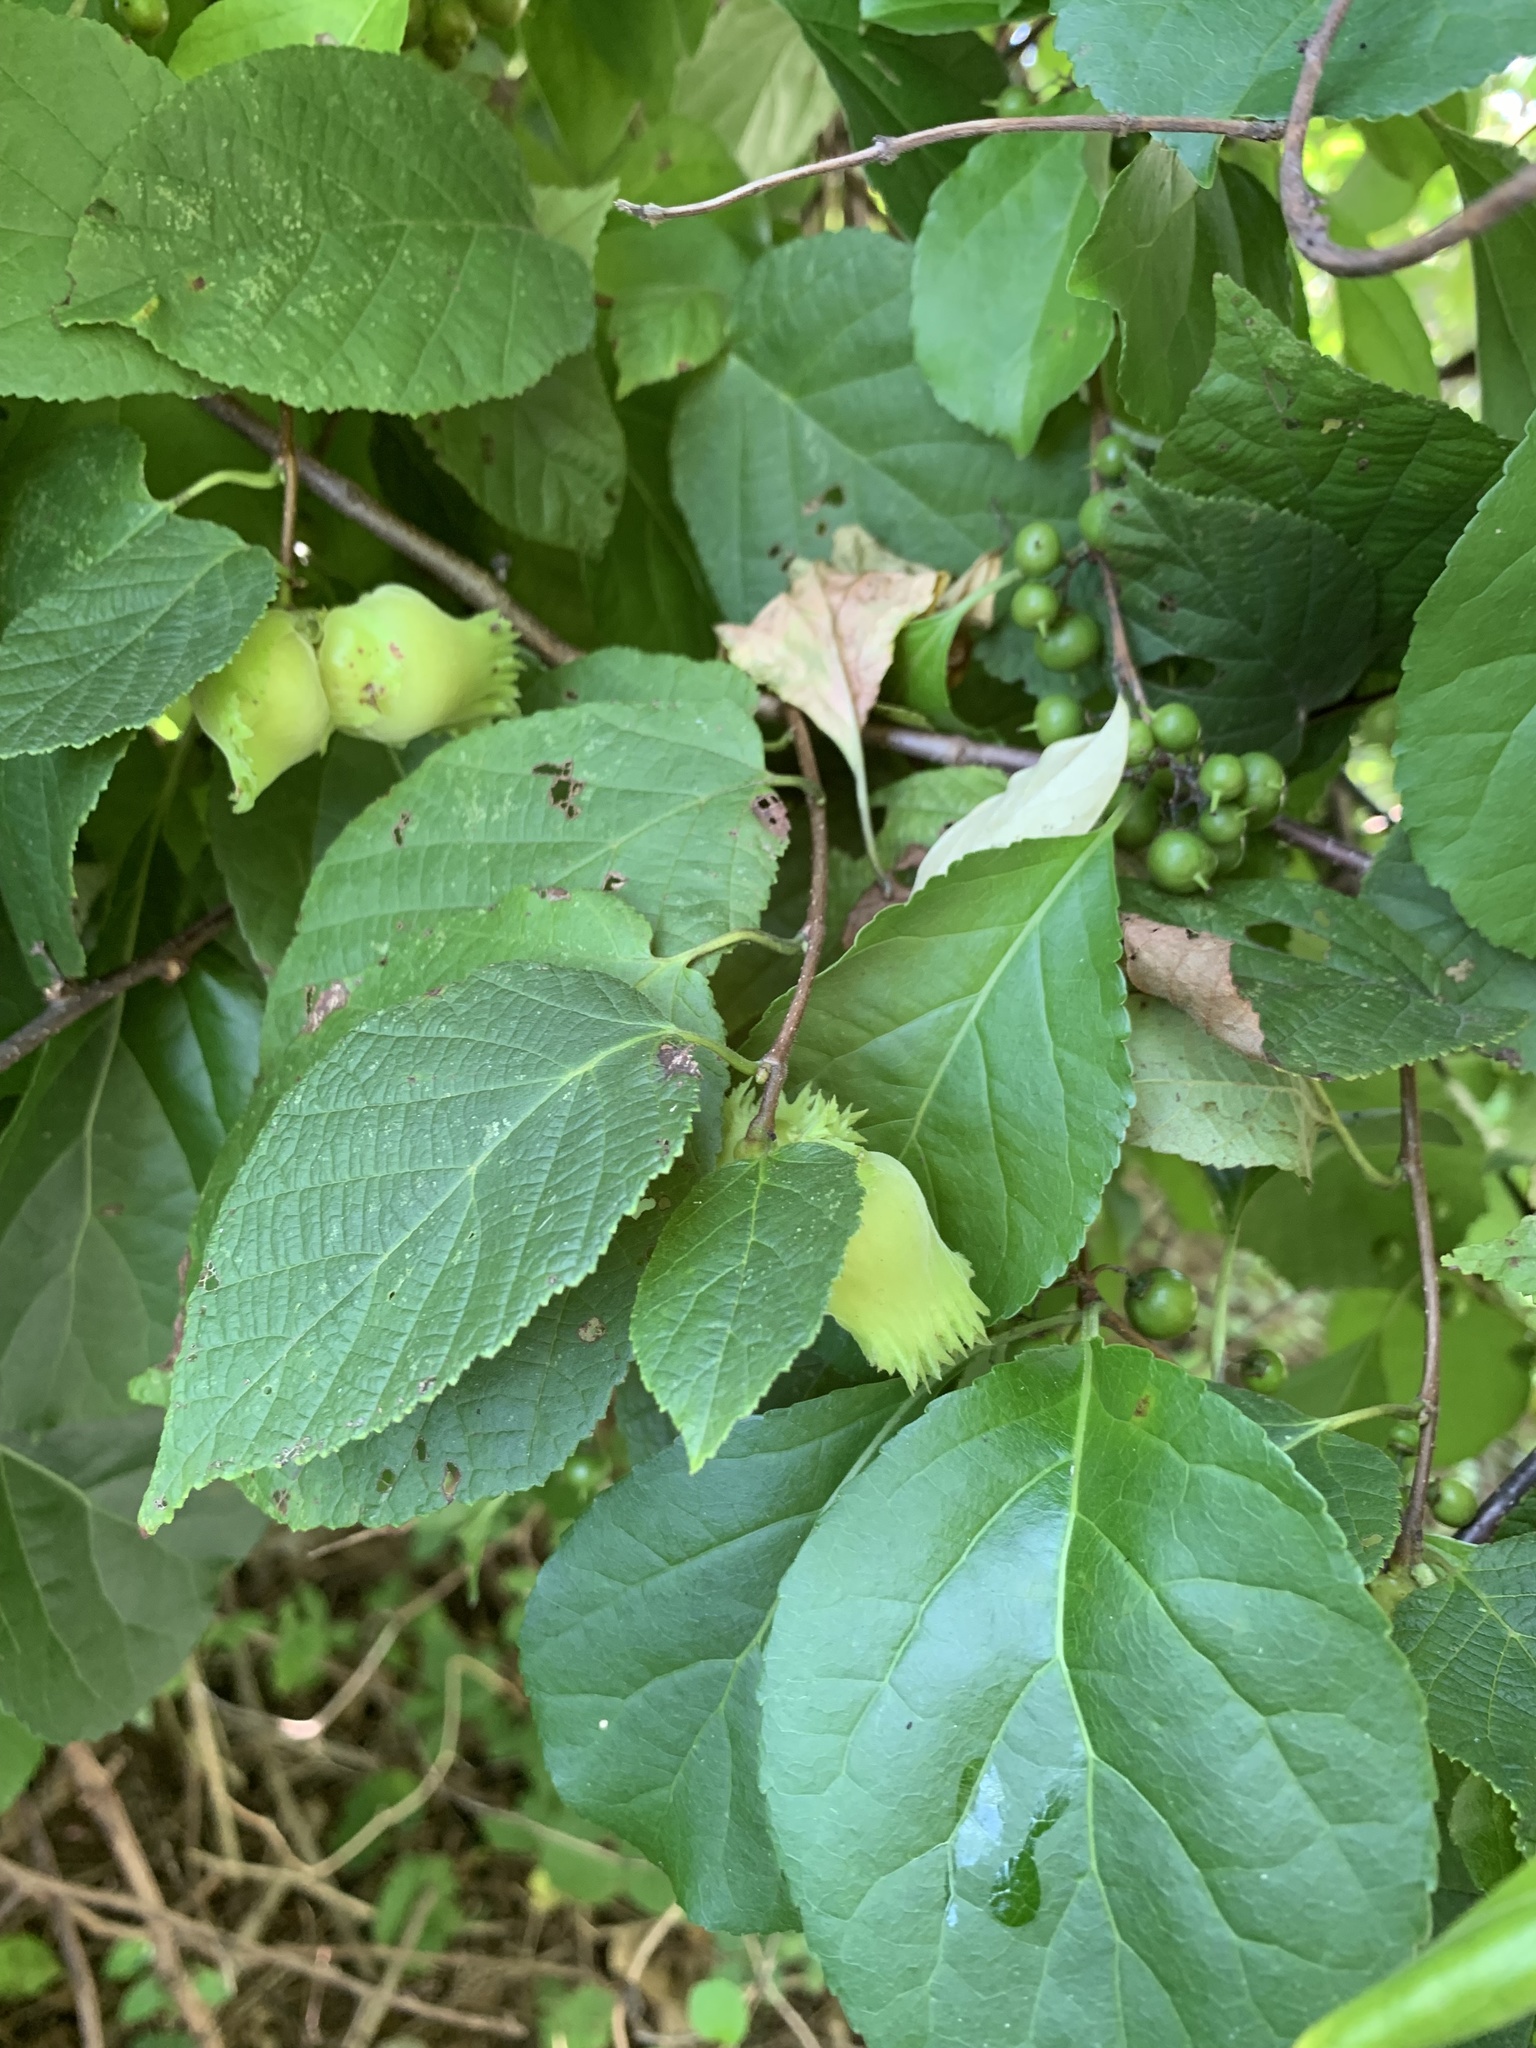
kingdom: Plantae
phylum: Tracheophyta
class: Magnoliopsida
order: Fagales
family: Betulaceae
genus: Corylus
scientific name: Corylus americana
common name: American hazel
